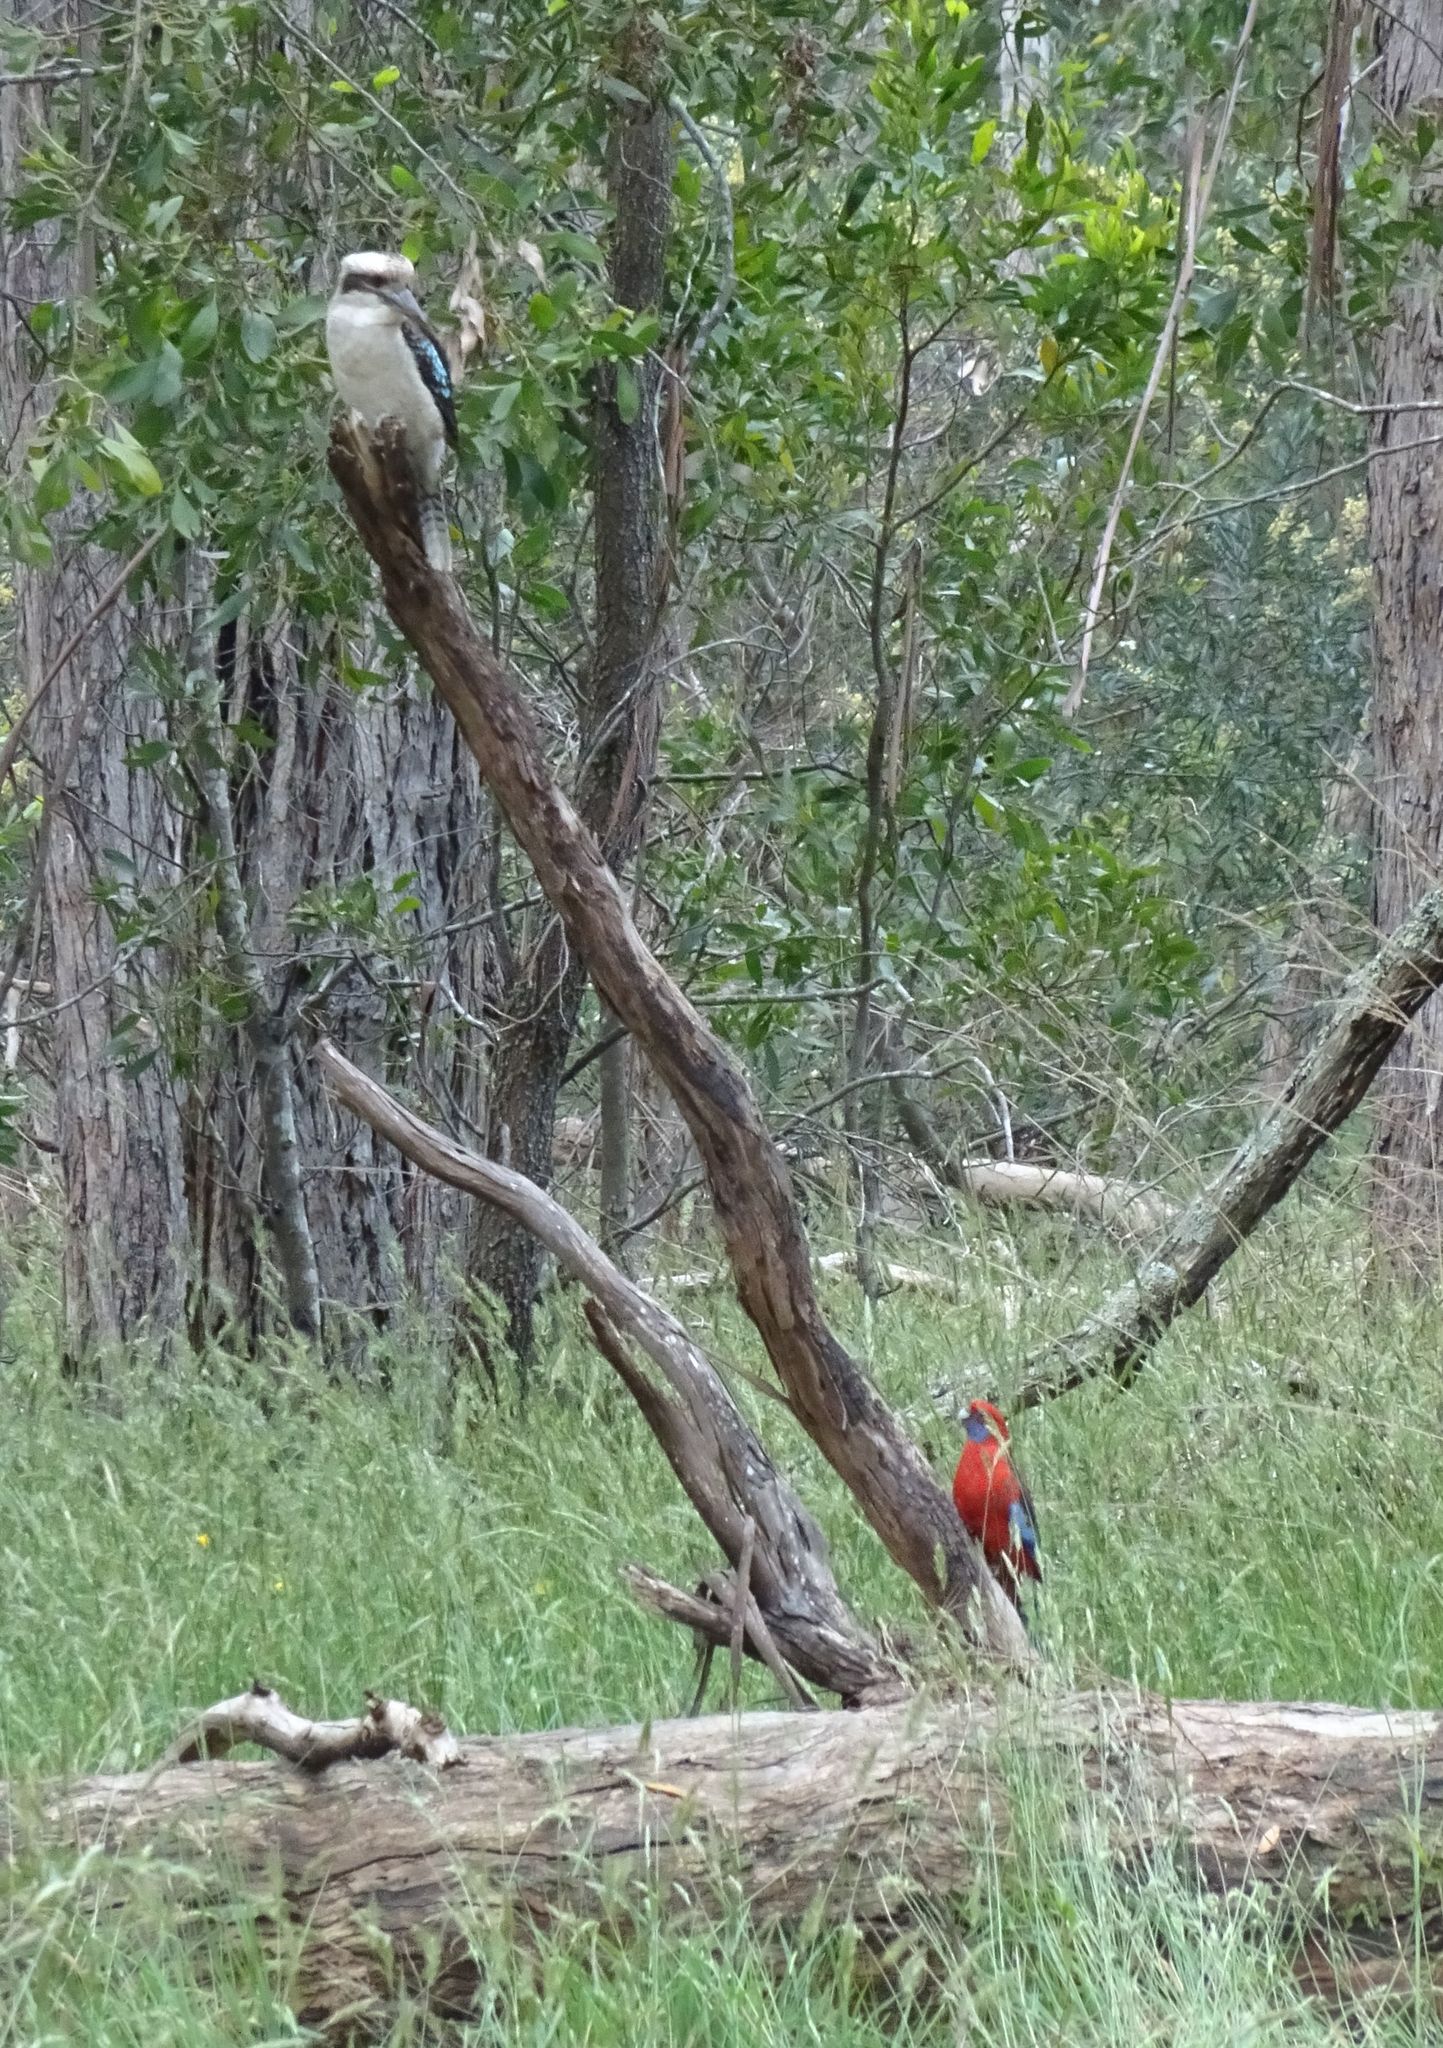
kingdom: Animalia
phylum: Chordata
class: Aves
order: Psittaciformes
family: Psittacidae
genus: Platycercus
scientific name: Platycercus elegans
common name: Crimson rosella
